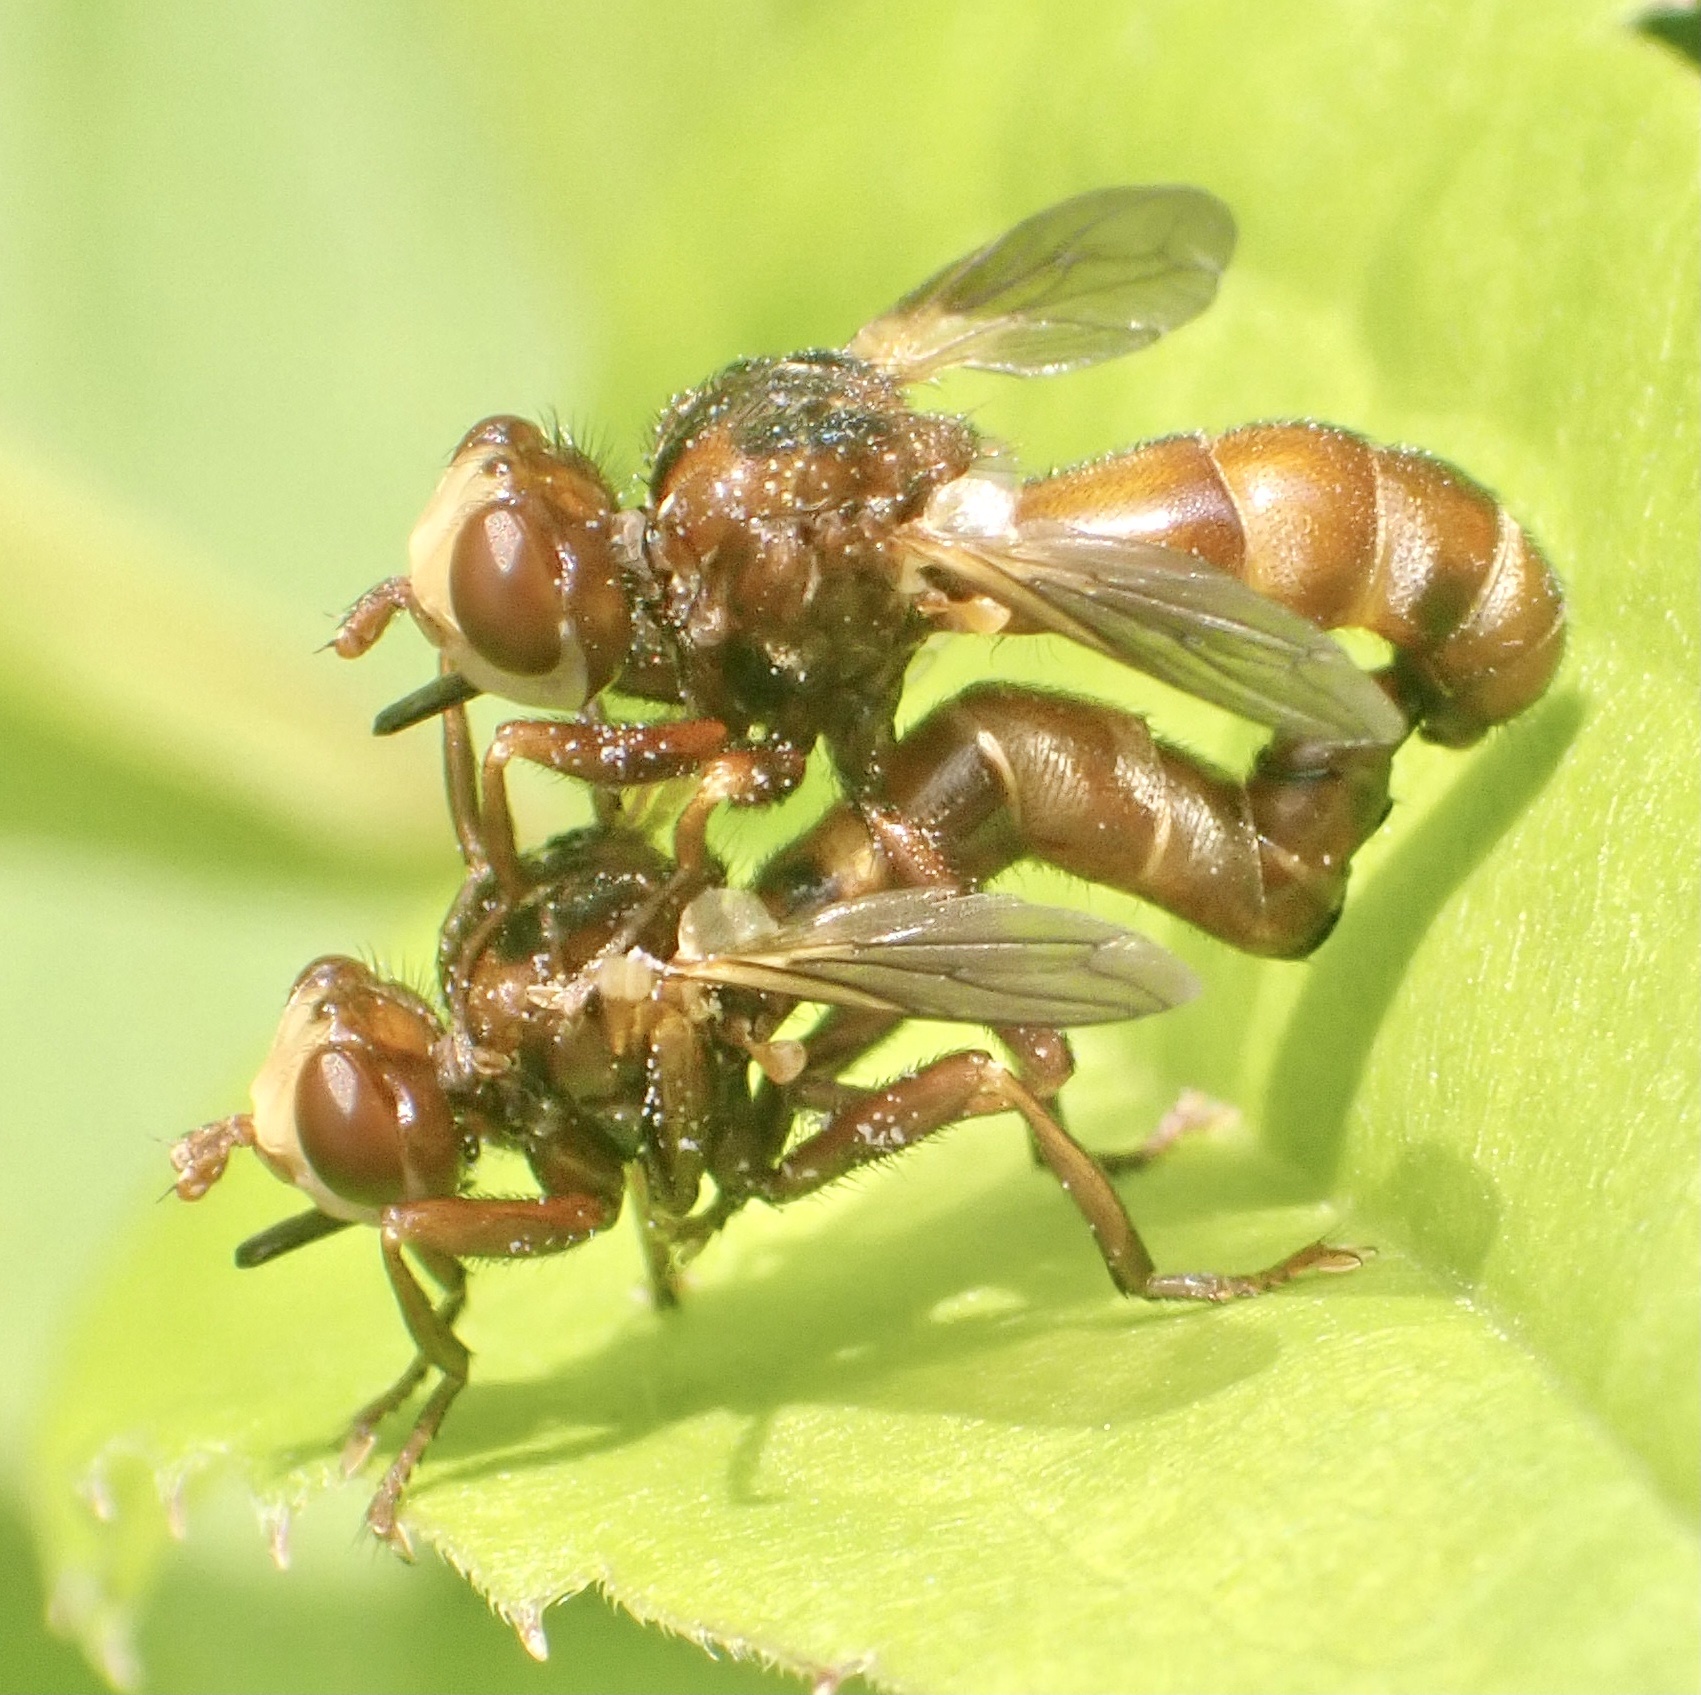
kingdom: Animalia
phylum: Arthropoda
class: Insecta
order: Diptera
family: Conopidae
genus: Sicus
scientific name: Sicus ferrugineus
